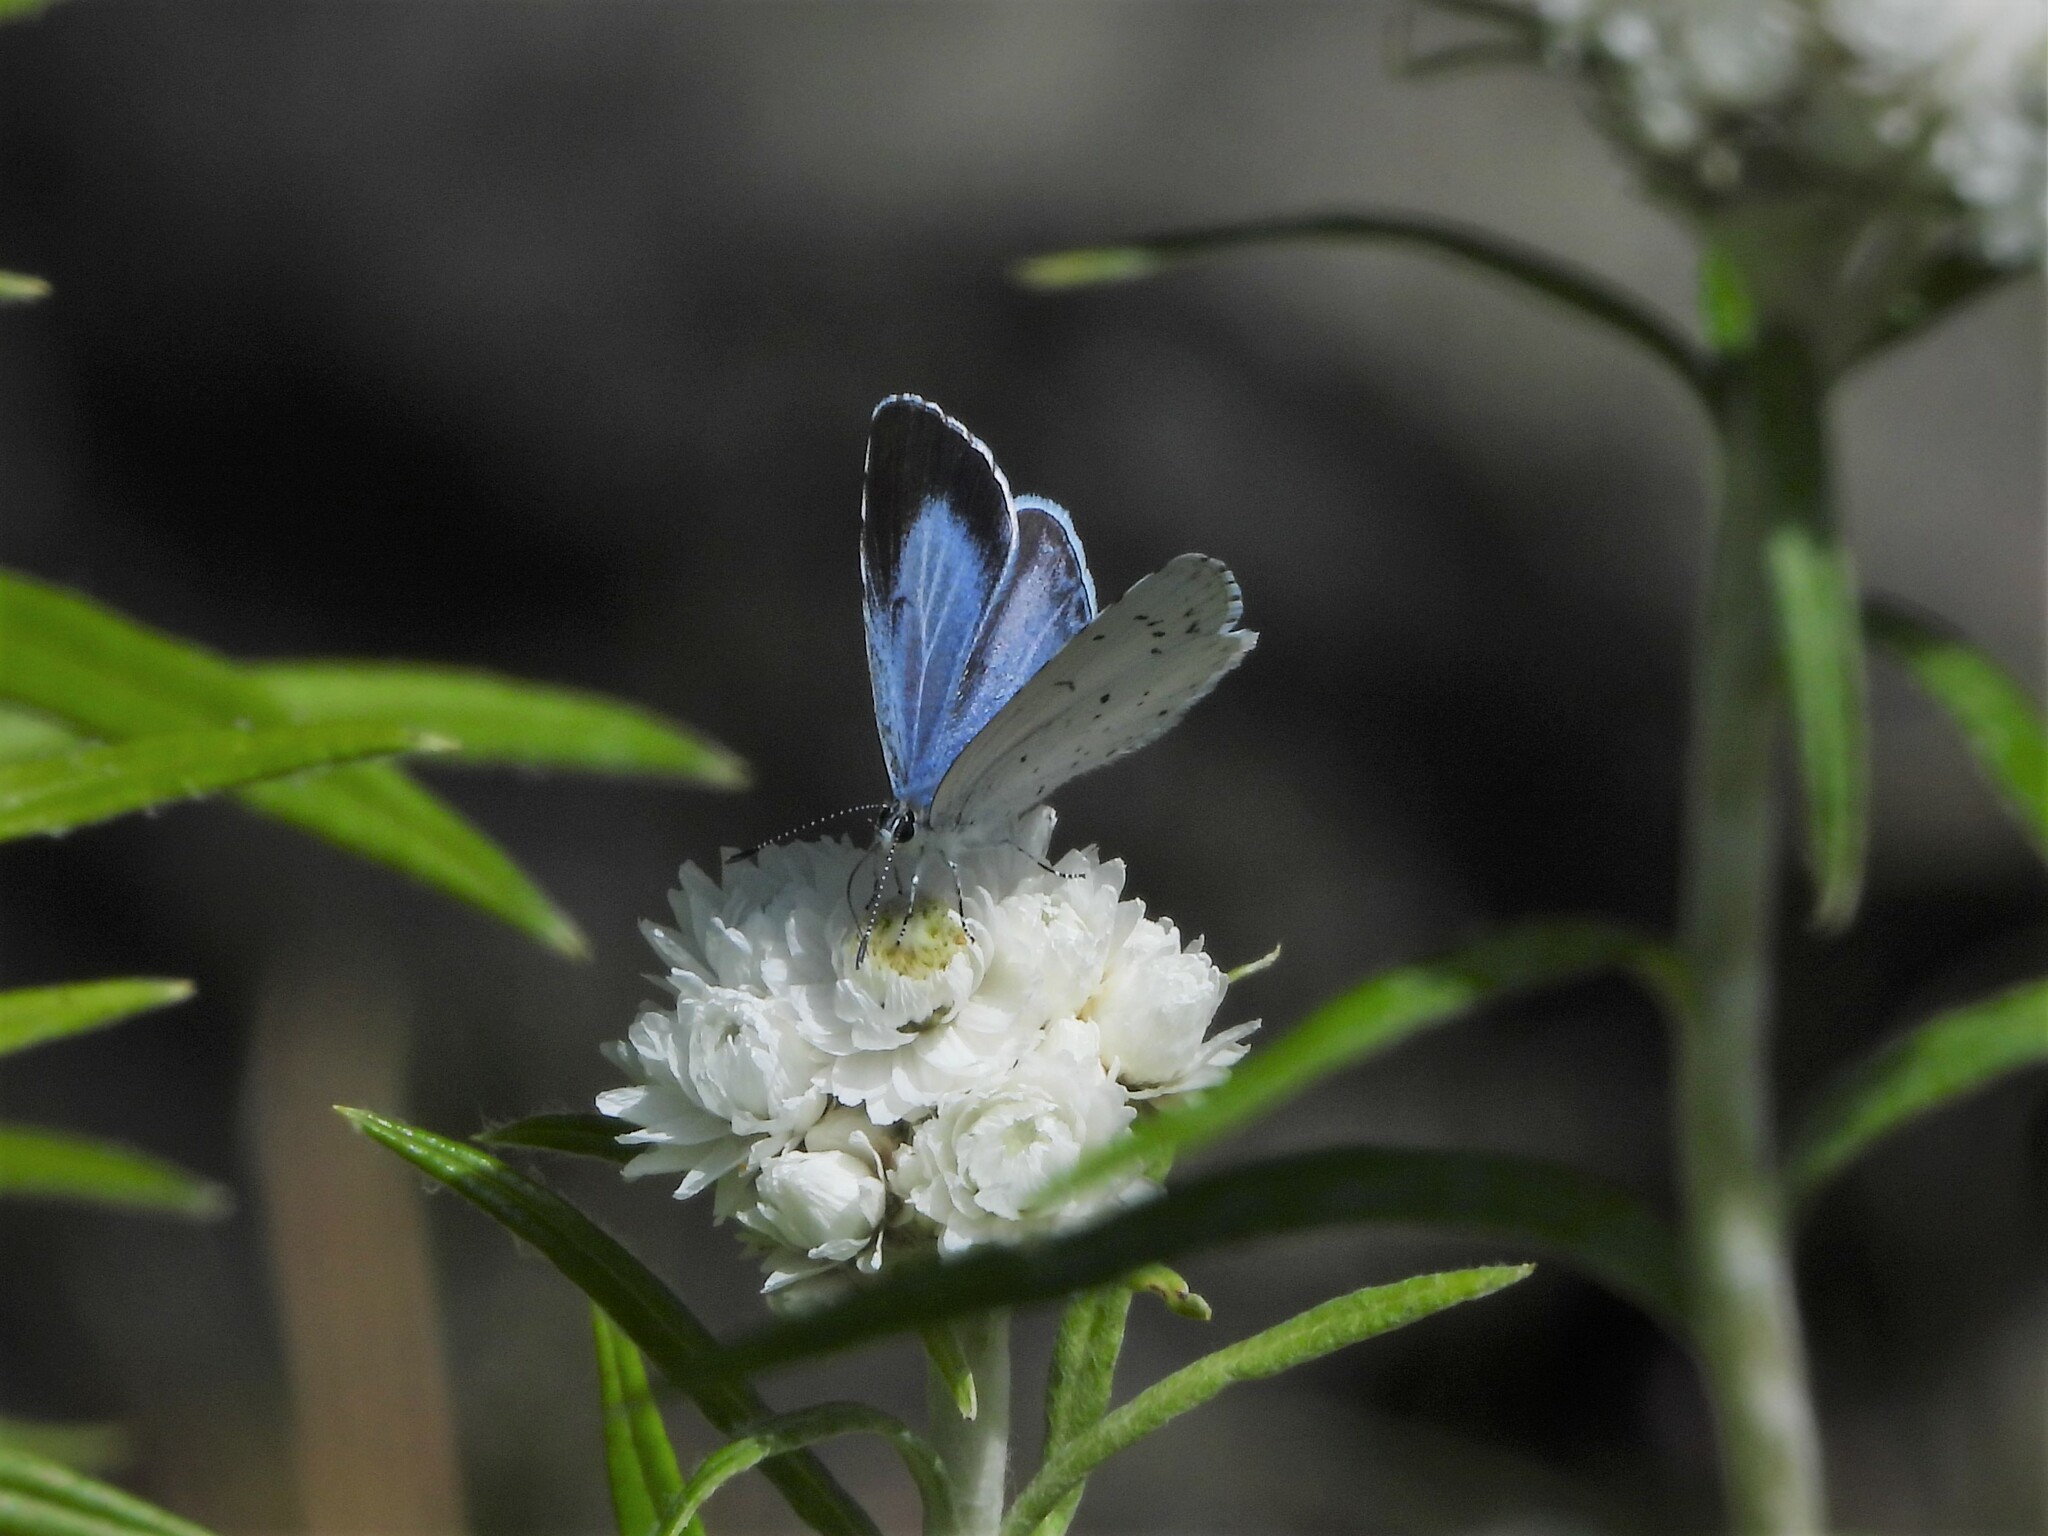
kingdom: Animalia
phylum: Arthropoda
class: Insecta
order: Lepidoptera
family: Lycaenidae
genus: Celastrina
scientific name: Celastrina argiolus
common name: Holly blue
